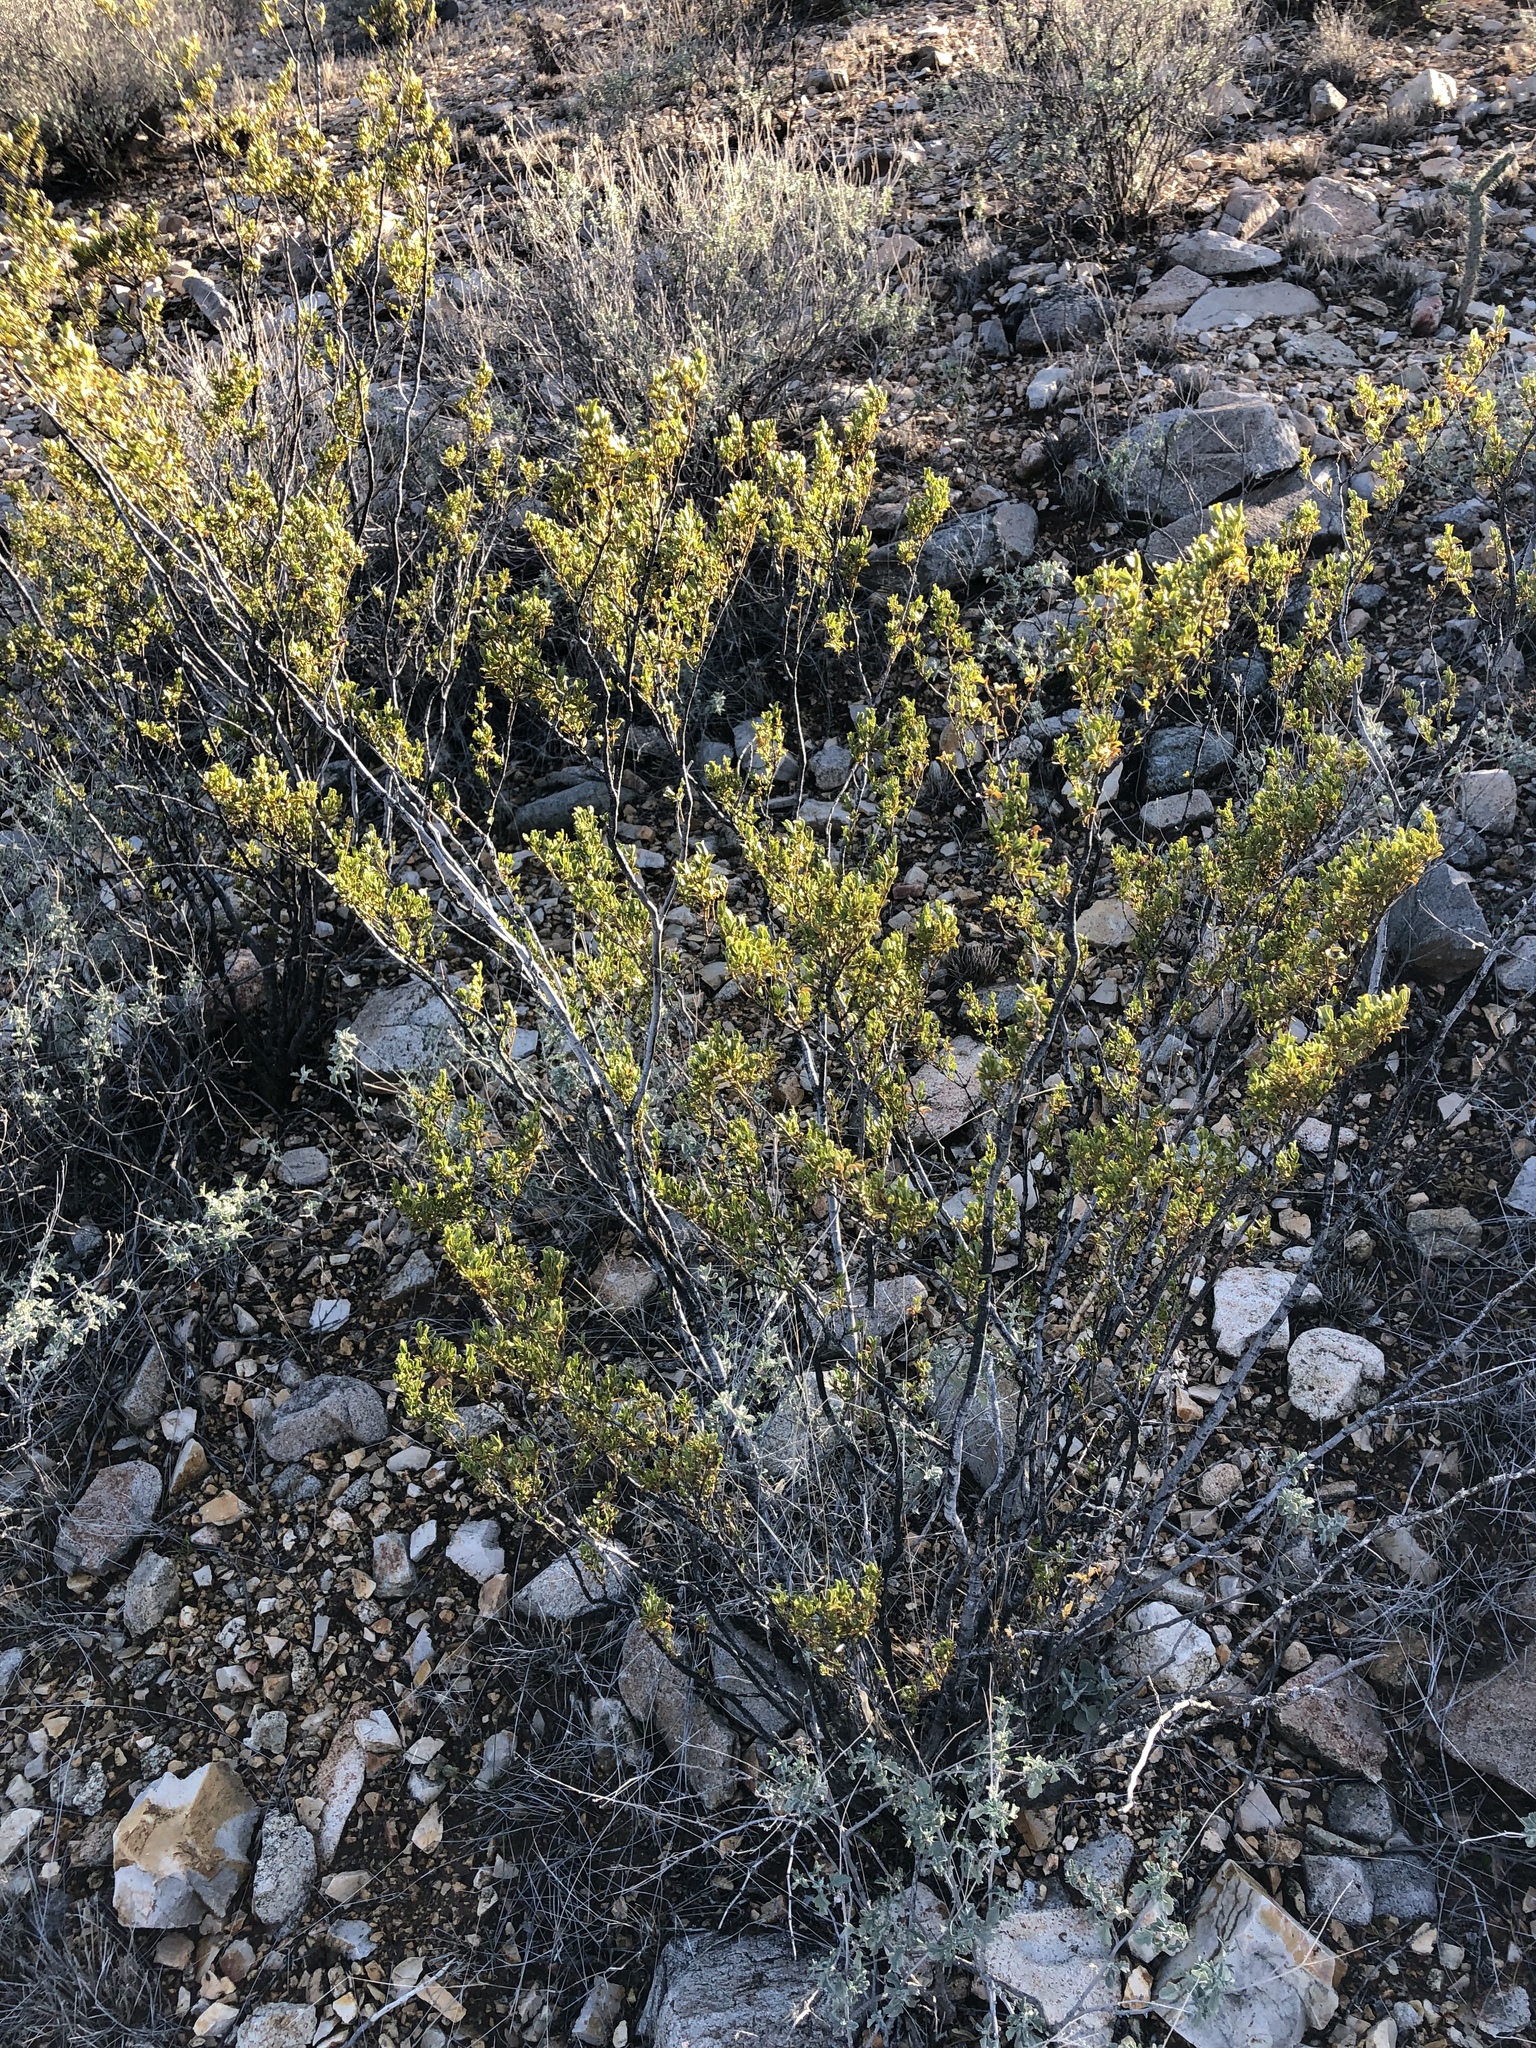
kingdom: Plantae
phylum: Tracheophyta
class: Magnoliopsida
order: Zygophyllales
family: Zygophyllaceae
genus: Larrea
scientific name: Larrea tridentata
